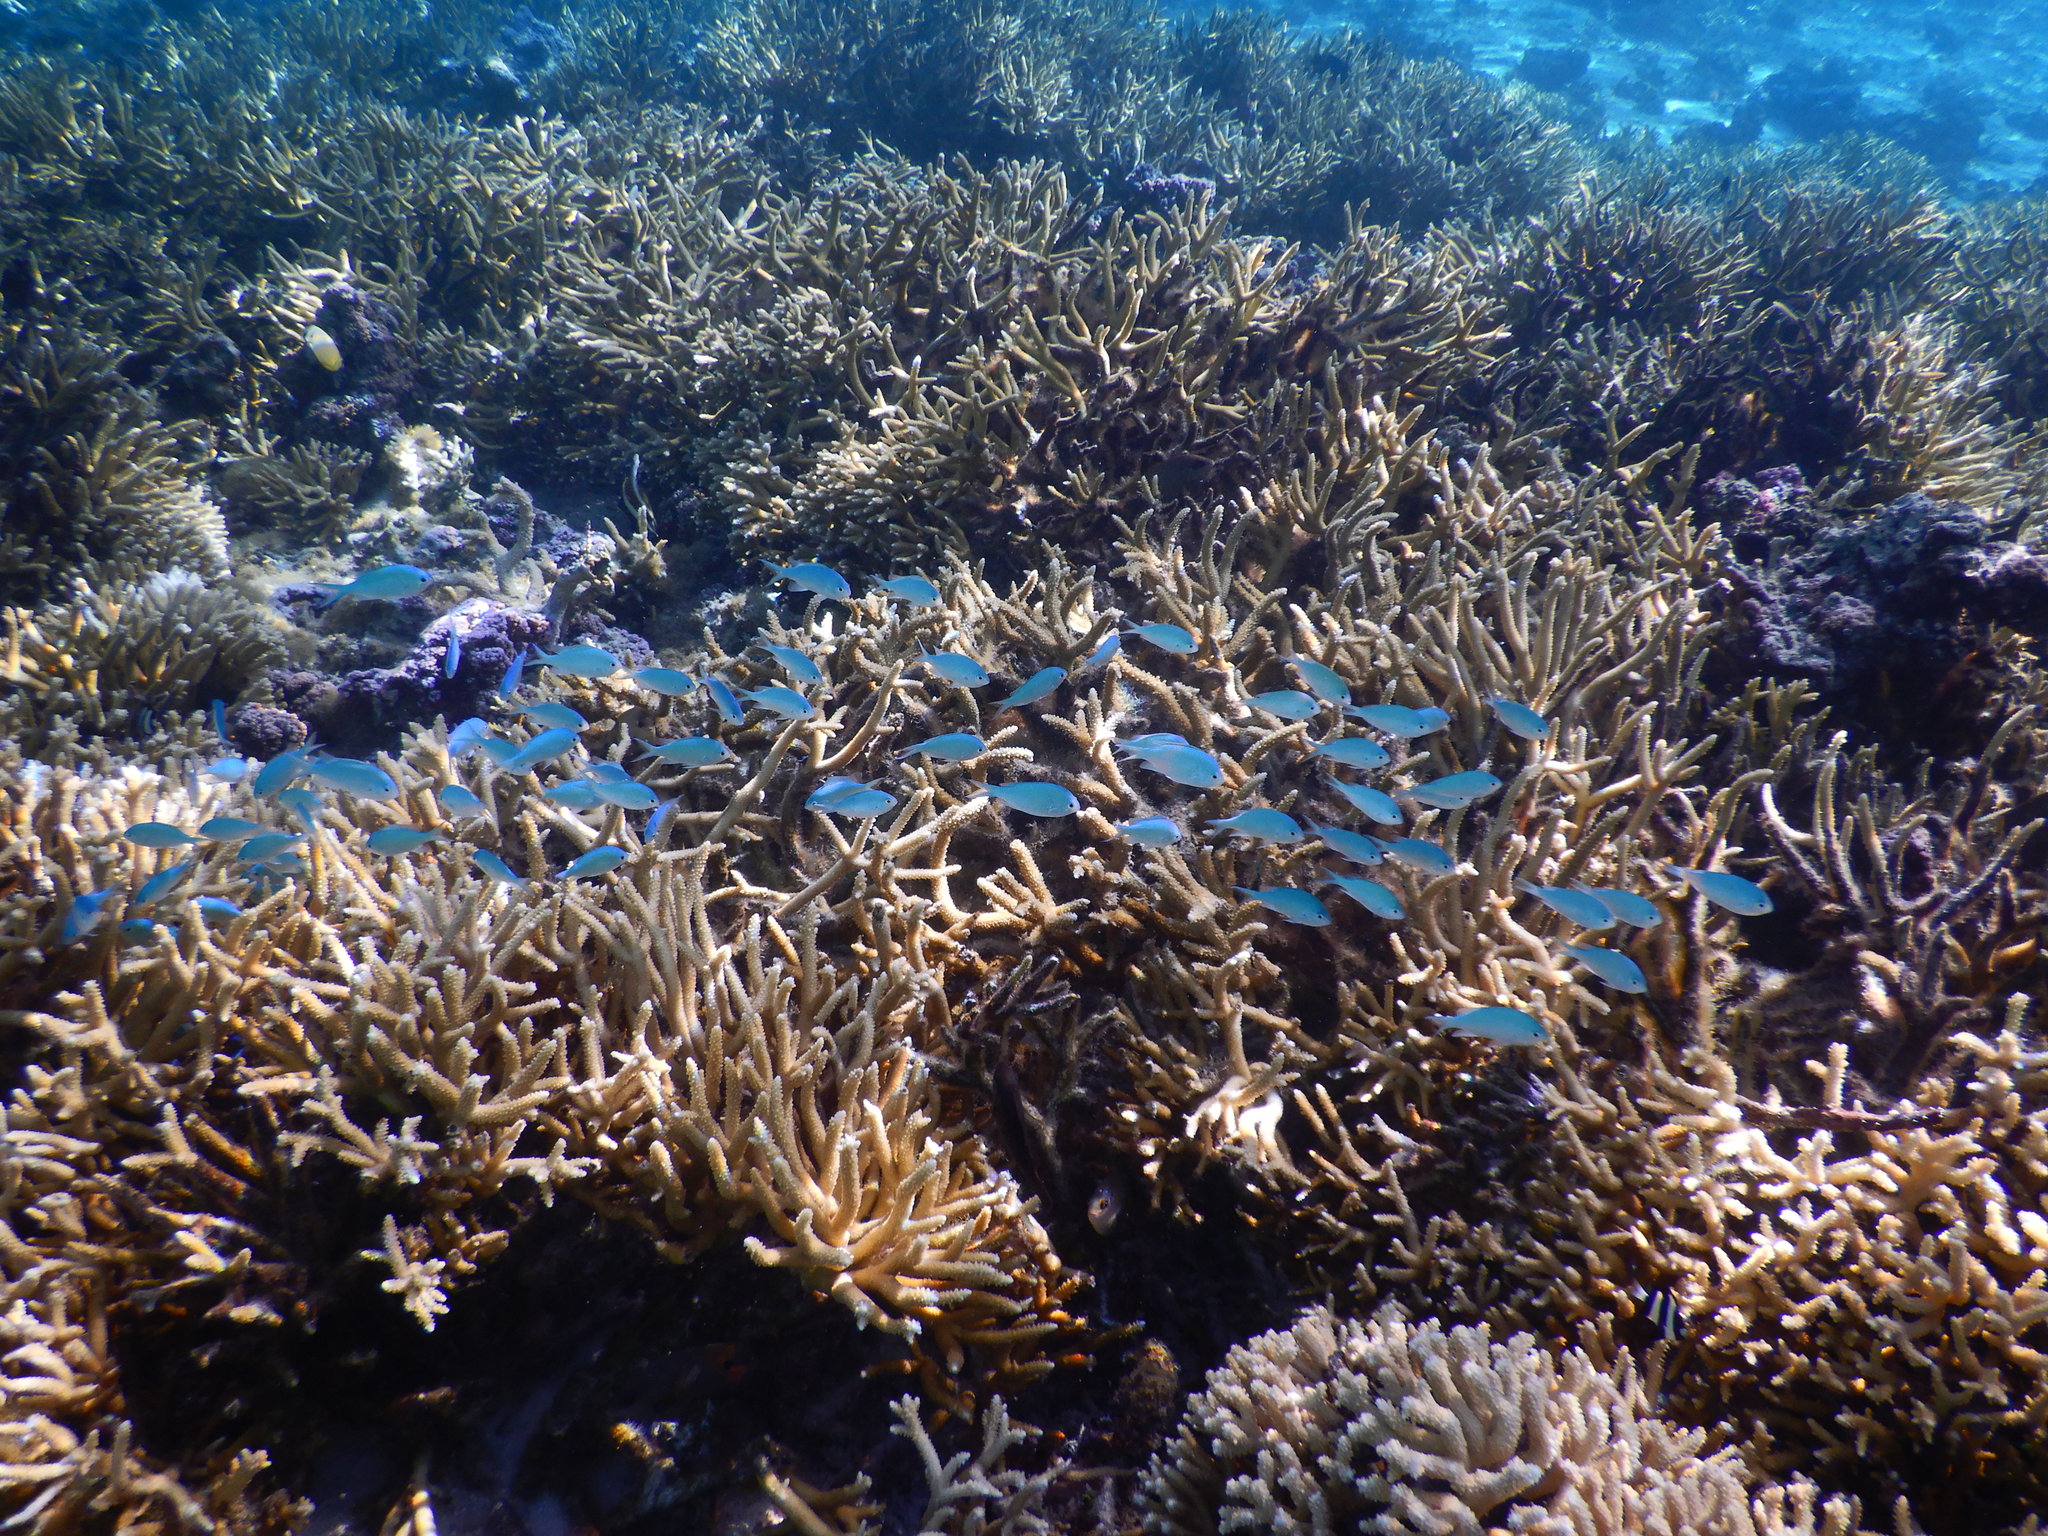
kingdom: Animalia
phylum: Chordata
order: Perciformes
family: Pomacentridae
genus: Chromis
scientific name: Chromis viridis
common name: Blue-green chromis
